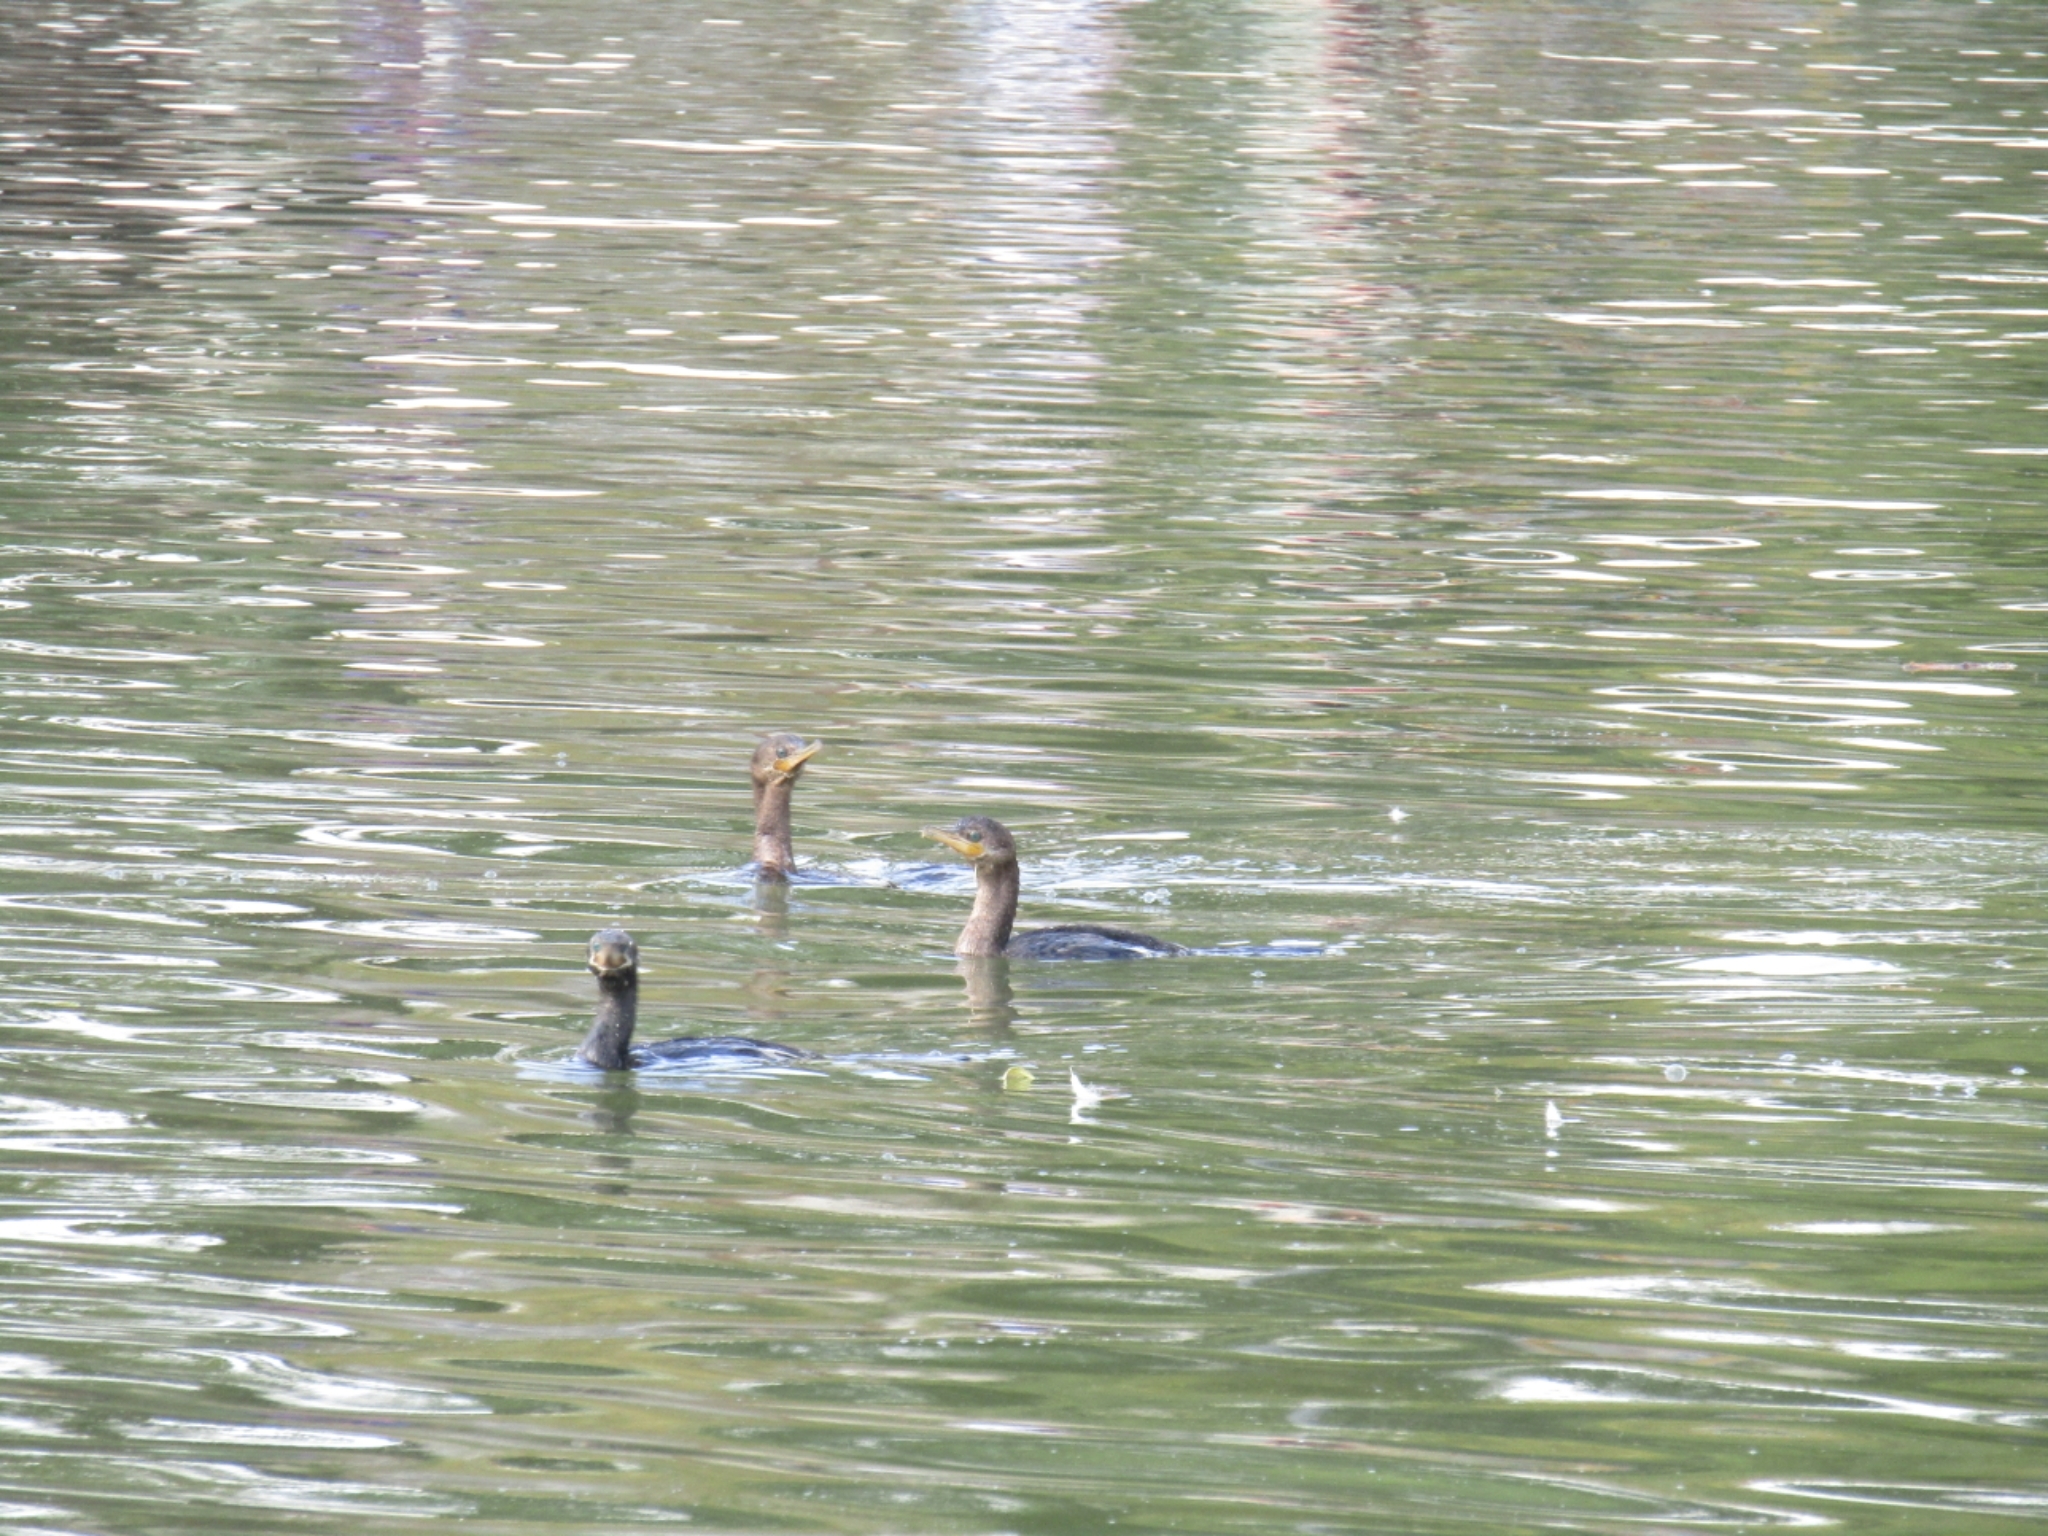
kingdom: Animalia
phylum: Chordata
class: Aves
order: Suliformes
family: Phalacrocoracidae
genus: Phalacrocorax
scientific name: Phalacrocorax brasilianus
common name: Neotropic cormorant
